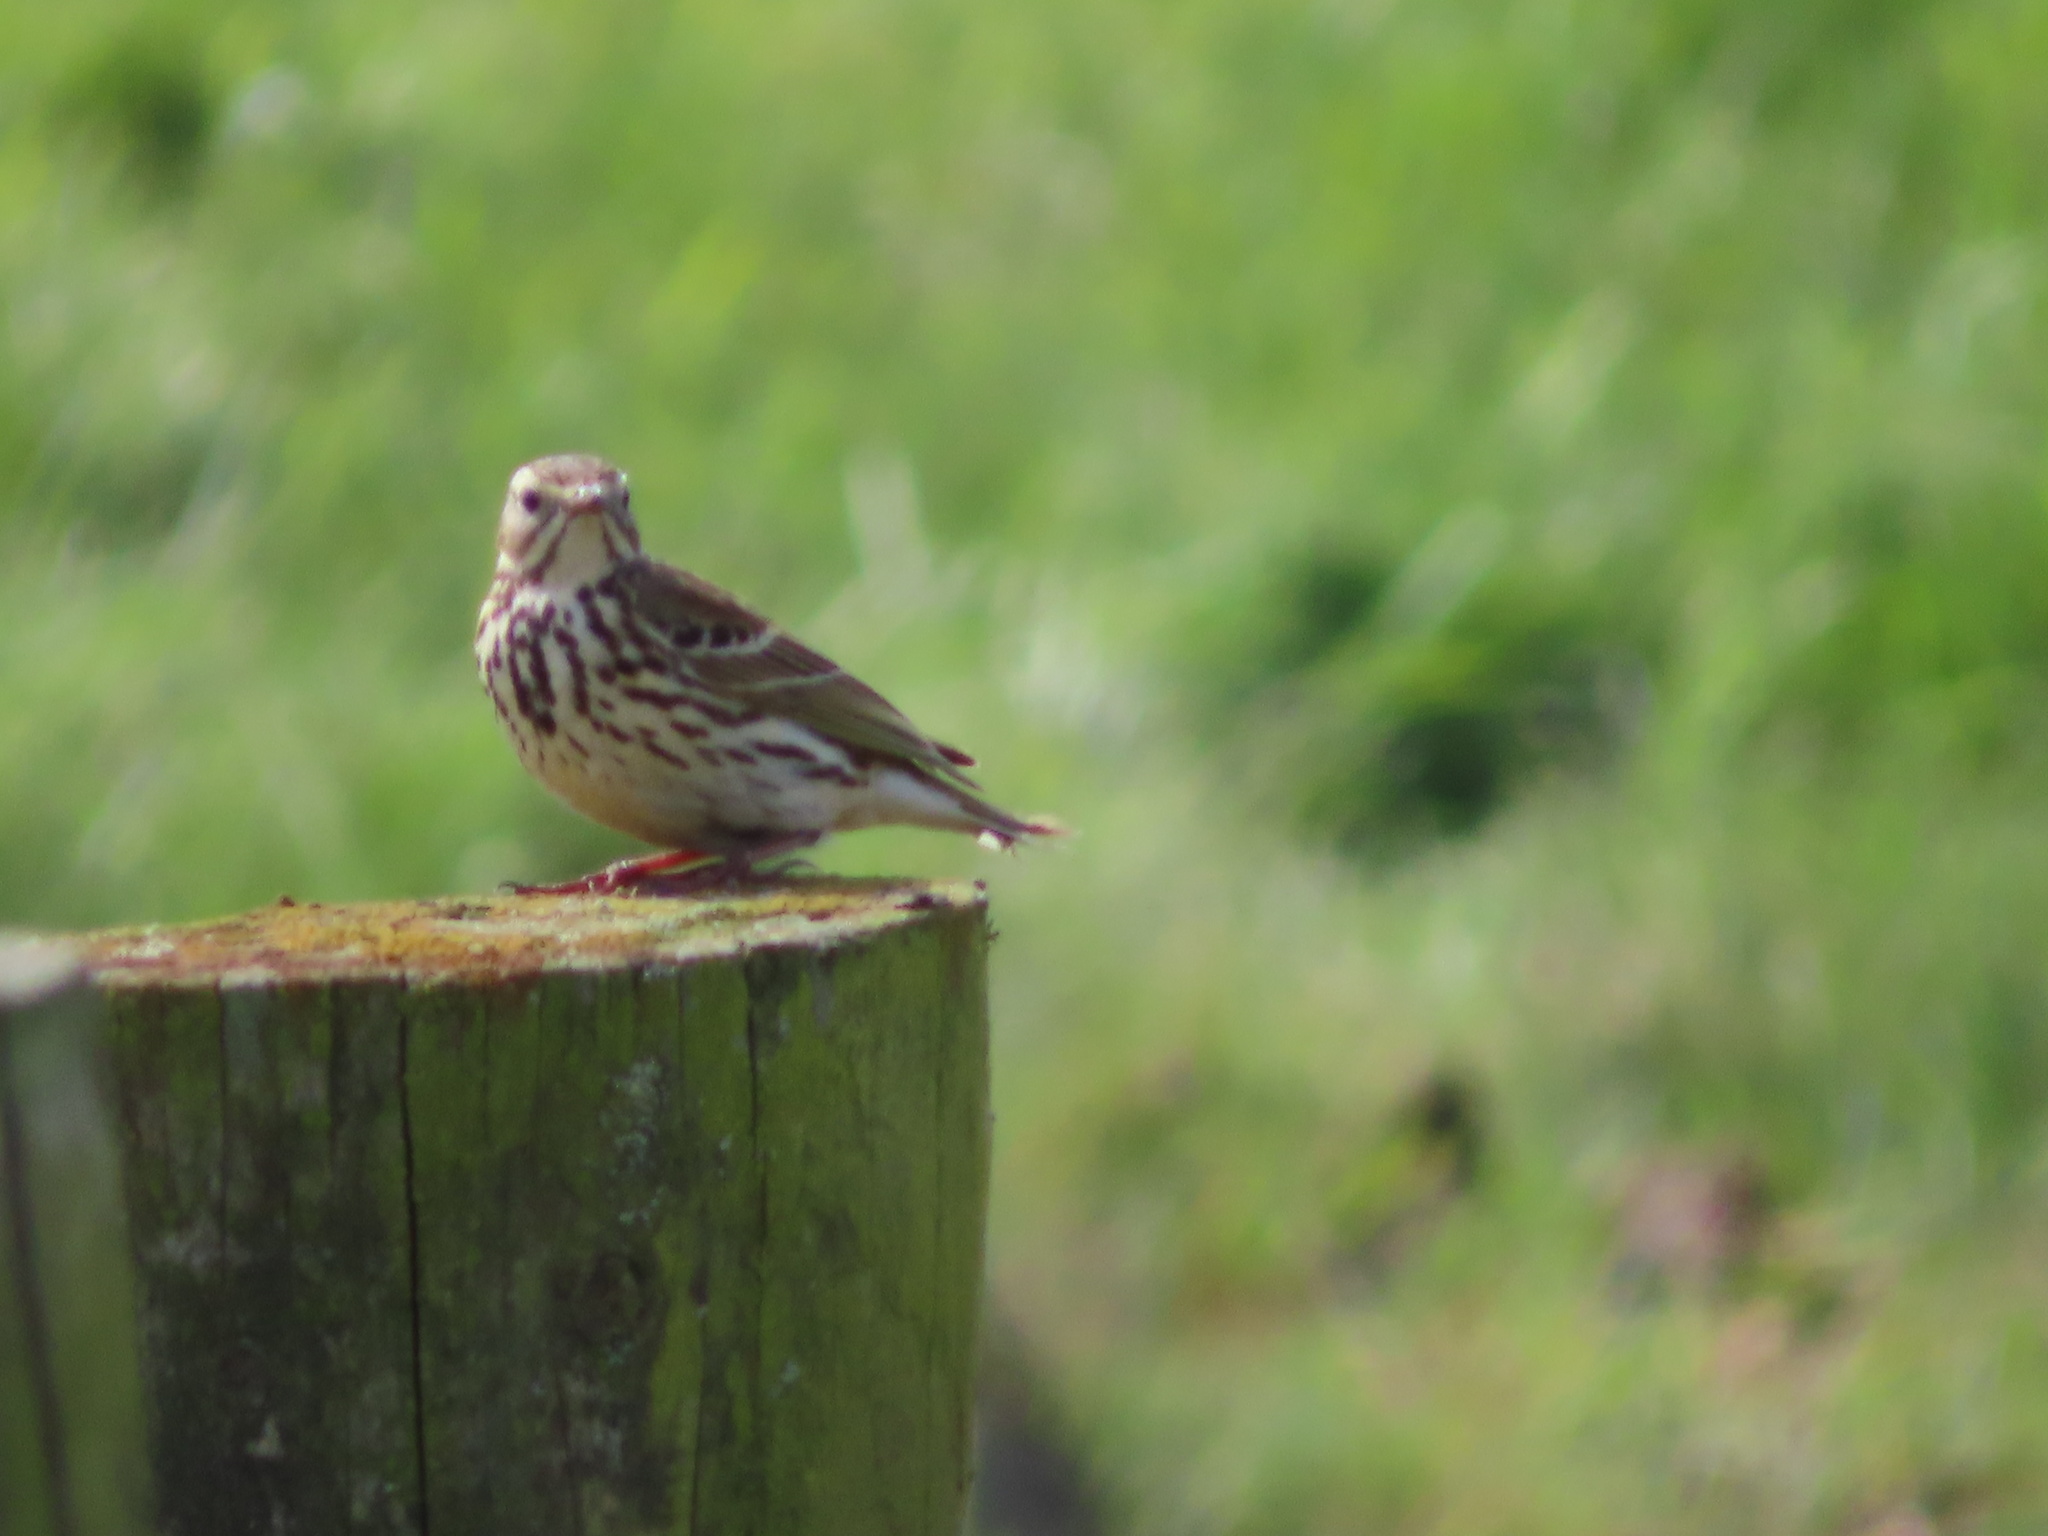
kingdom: Animalia
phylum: Chordata
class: Aves
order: Passeriformes
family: Motacillidae
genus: Anthus
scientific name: Anthus pratensis
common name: Meadow pipit
